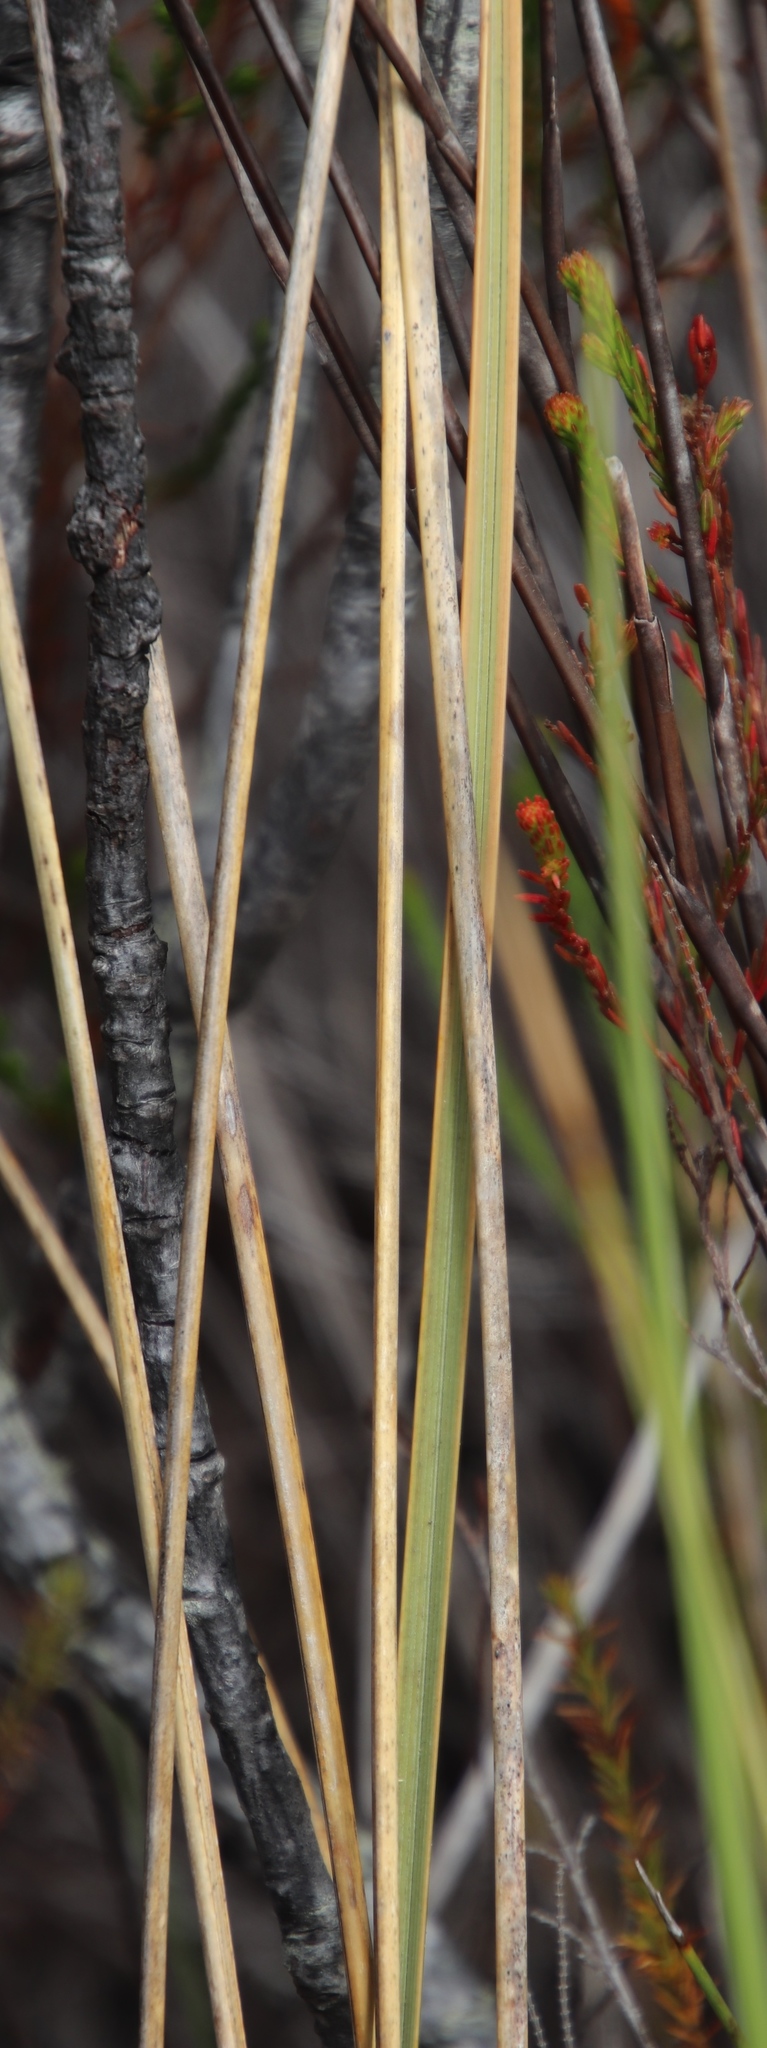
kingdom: Plantae
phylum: Tracheophyta
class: Liliopsida
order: Poales
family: Poaceae
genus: Capeochloa
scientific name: Capeochloa cincta
